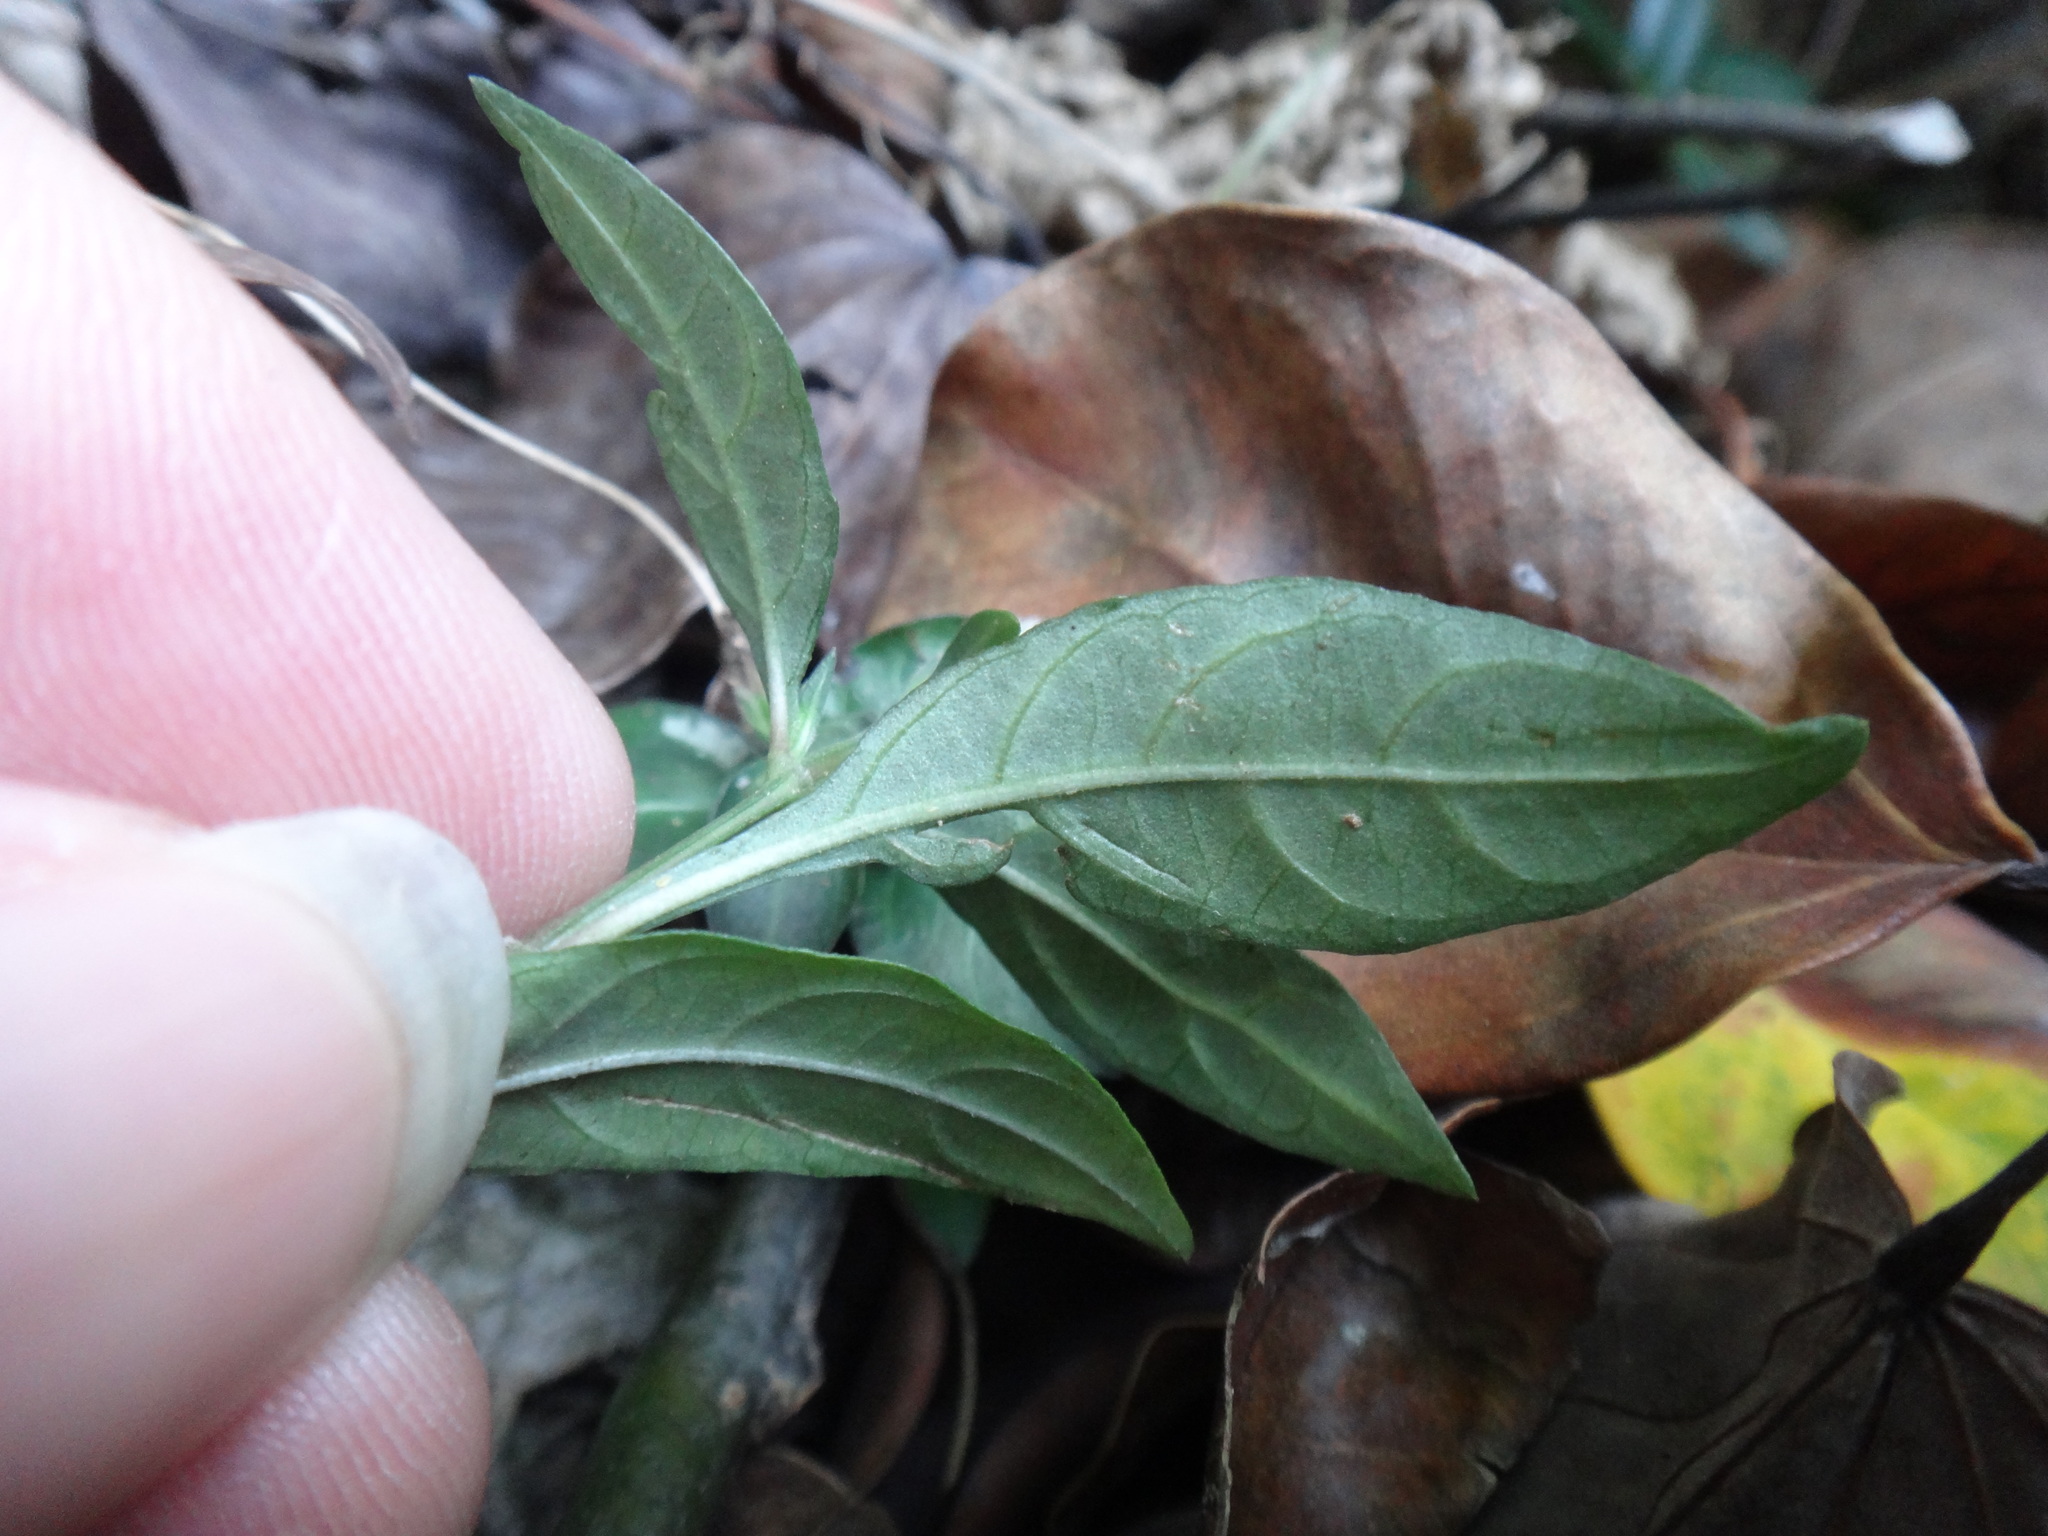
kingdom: Plantae
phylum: Tracheophyta
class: Magnoliopsida
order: Lamiales
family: Acanthaceae
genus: Lepidagathis
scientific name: Lepidagathis inaequalis
